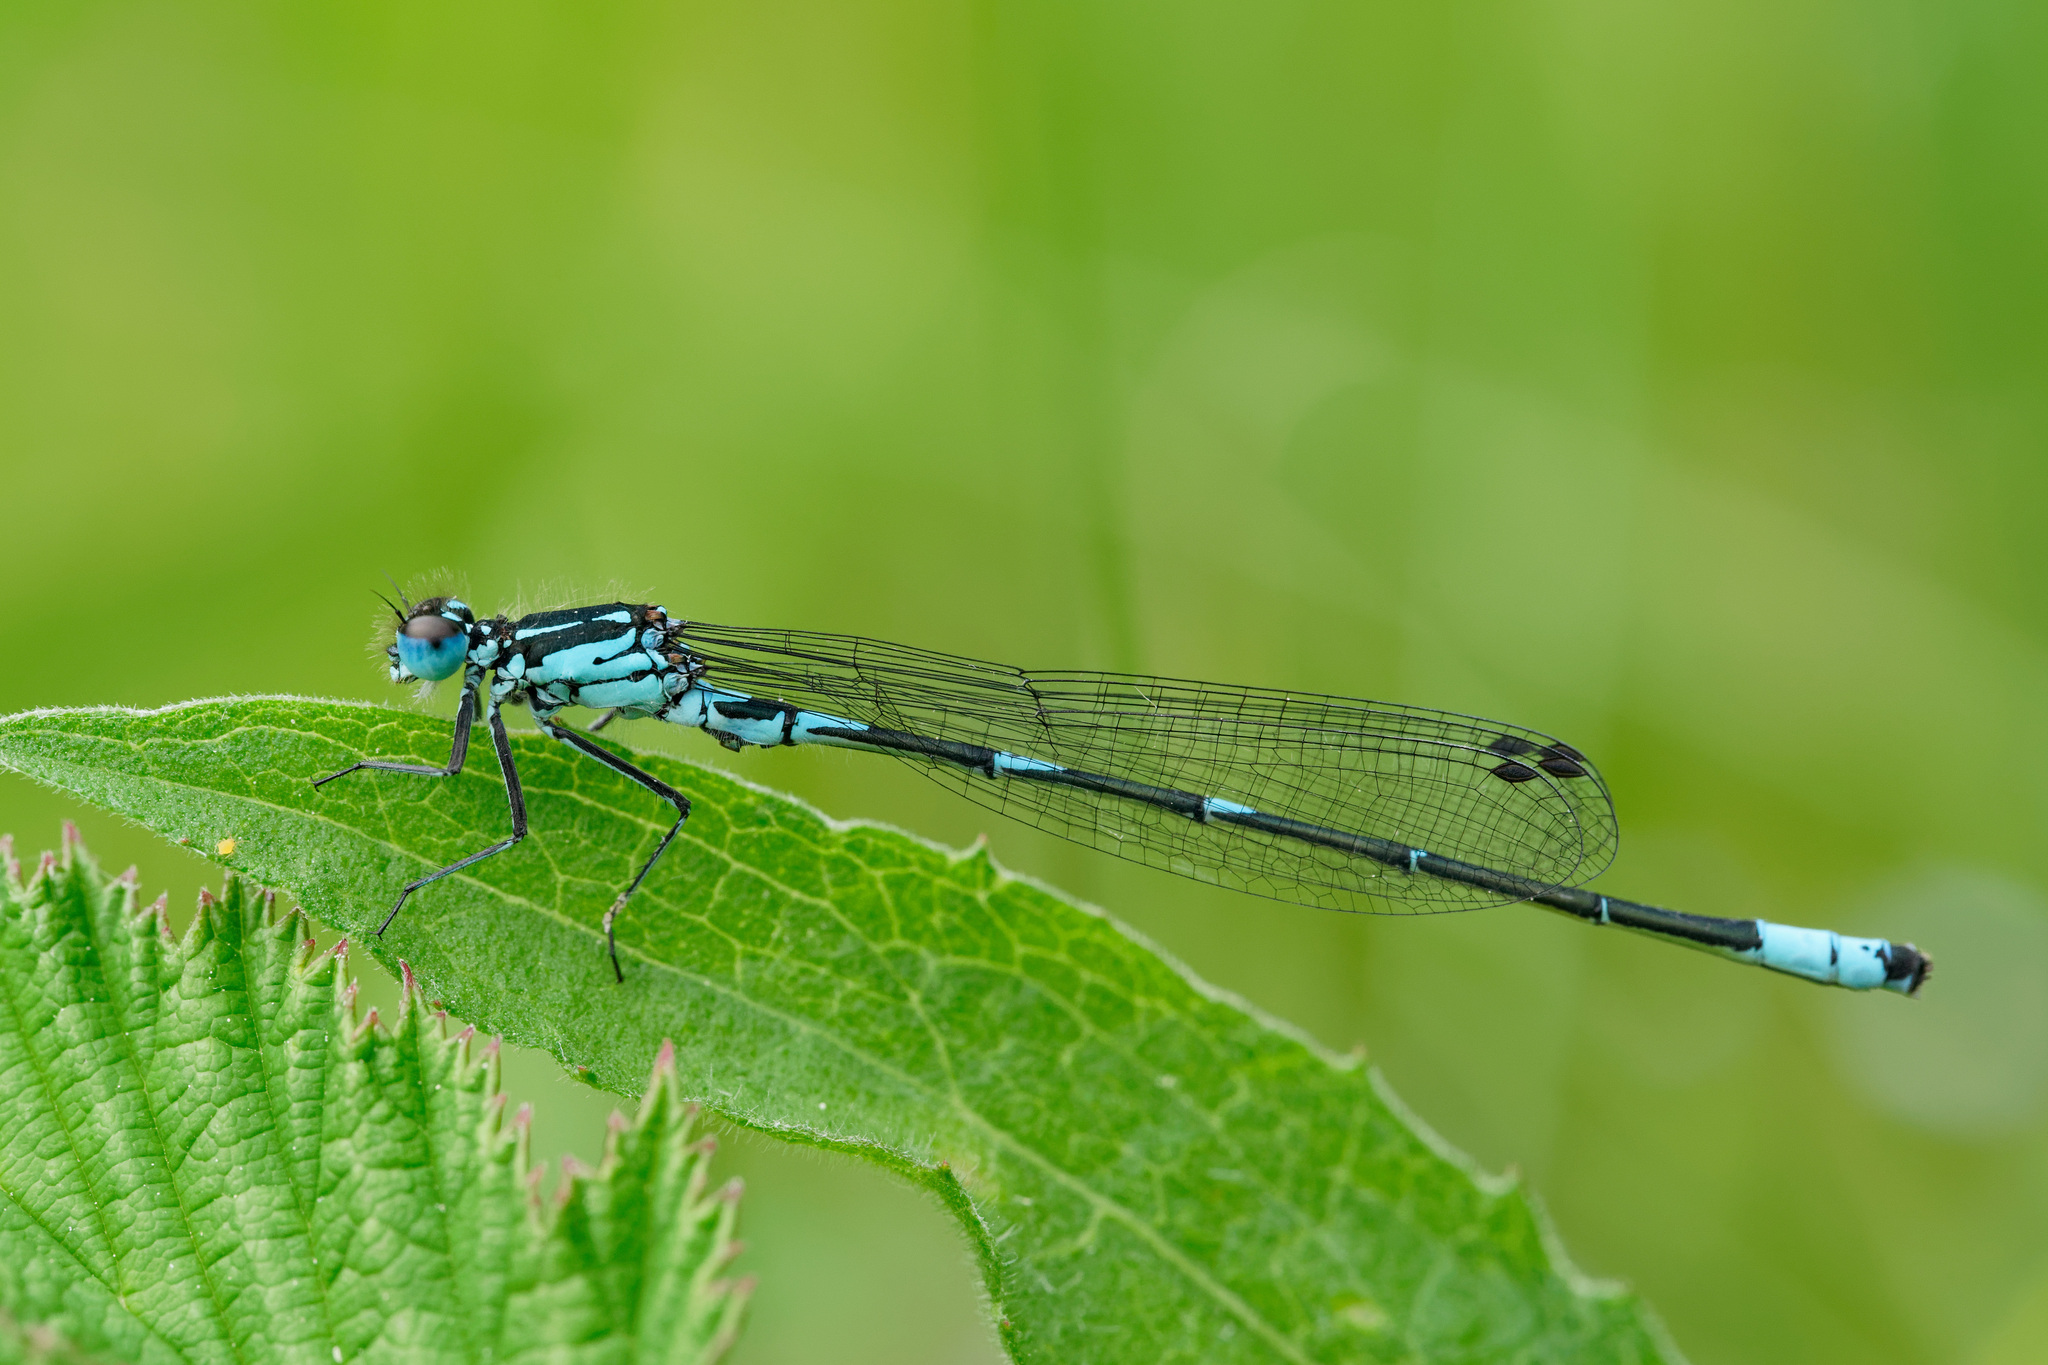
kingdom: Animalia
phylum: Arthropoda
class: Insecta
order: Odonata
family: Coenagrionidae
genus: Coenagrion
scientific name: Coenagrion pulchellum
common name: Variable bluet
